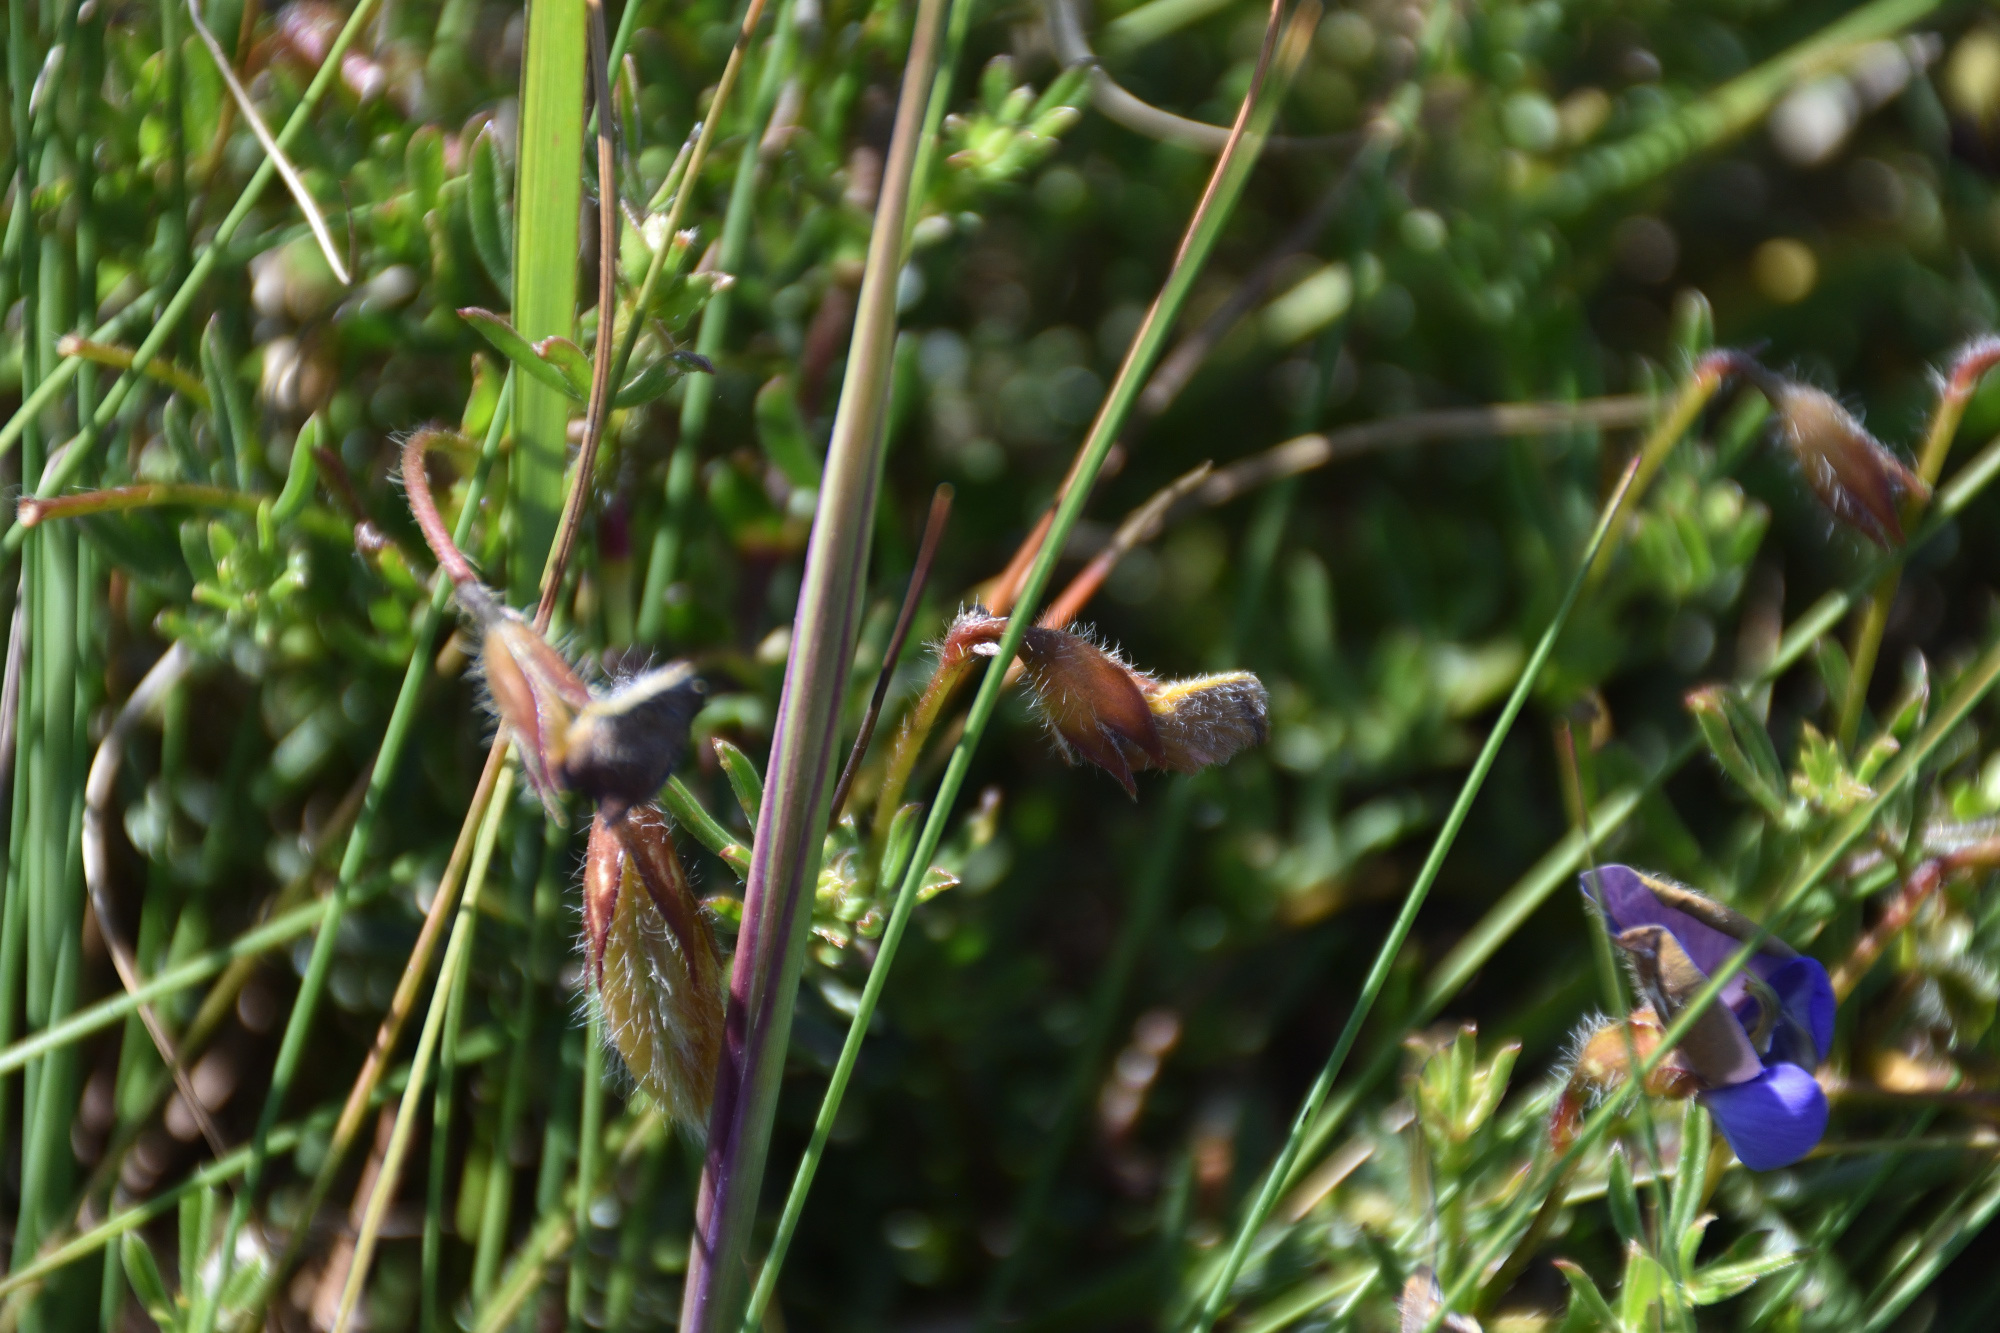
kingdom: Plantae
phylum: Tracheophyta
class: Magnoliopsida
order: Fabales
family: Fabaceae
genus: Lotononis
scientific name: Lotononis azurea
